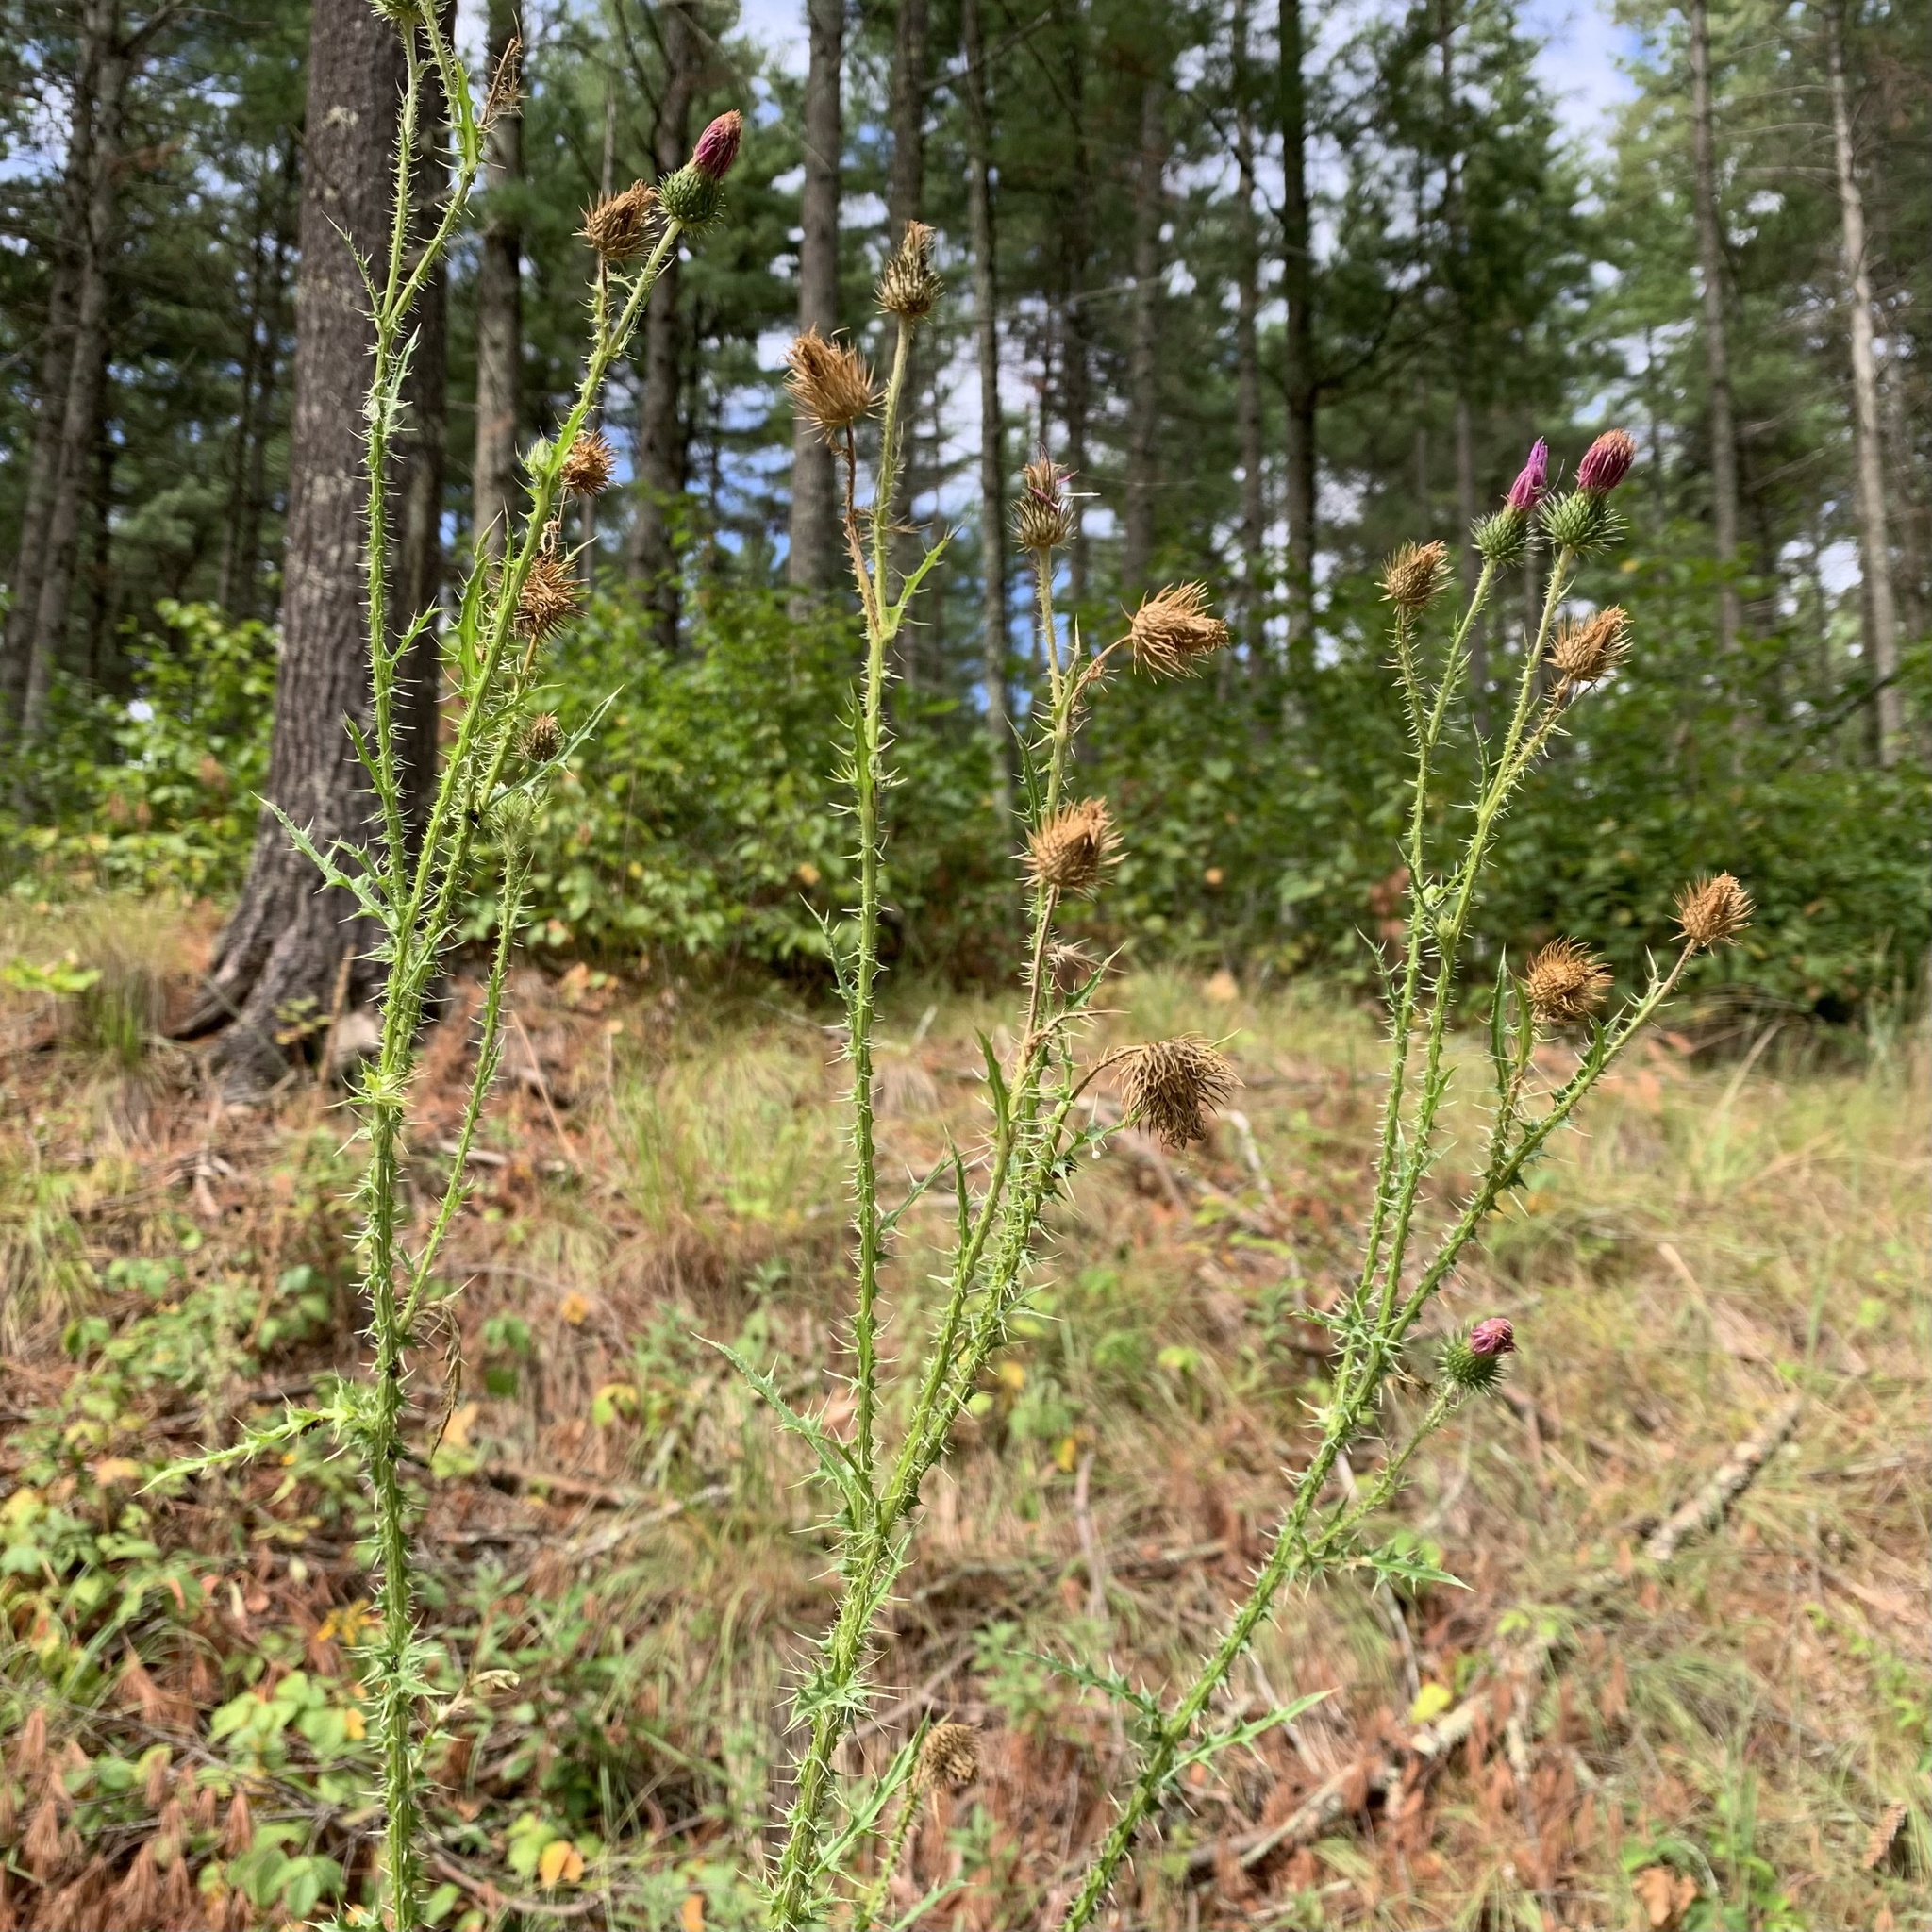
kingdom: Plantae
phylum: Tracheophyta
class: Magnoliopsida
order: Asterales
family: Asteraceae
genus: Carduus
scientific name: Carduus acanthoides
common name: Plumeless thistle
